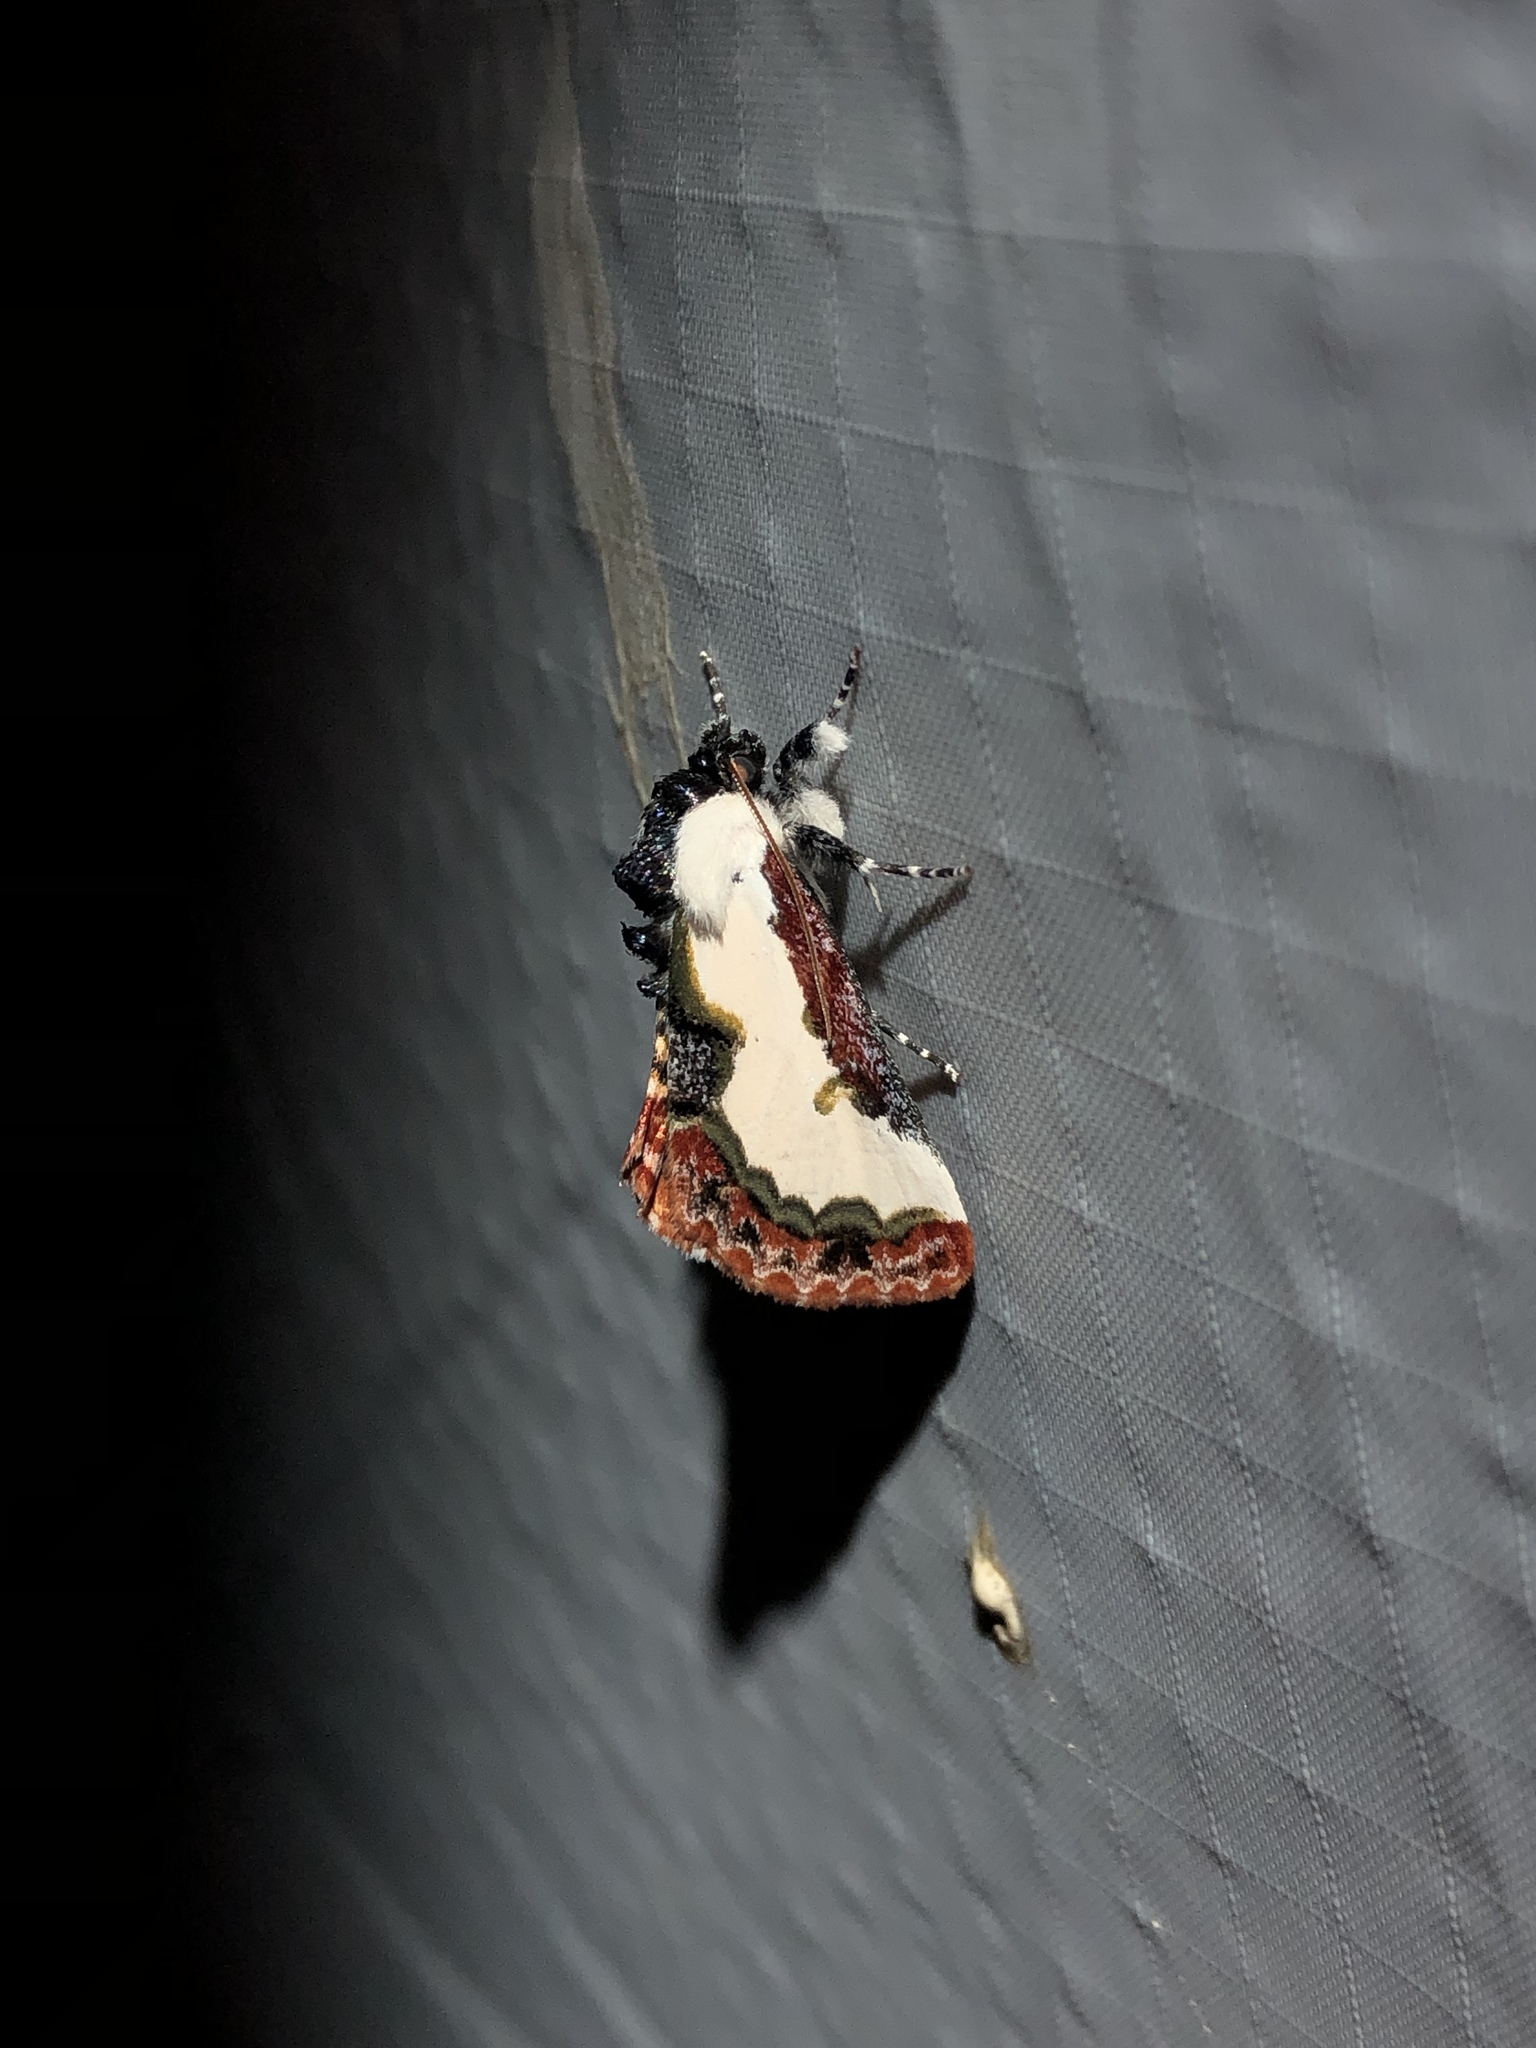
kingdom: Animalia
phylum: Arthropoda
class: Insecta
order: Lepidoptera
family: Noctuidae
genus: Eudryas
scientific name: Eudryas unio
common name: Pearly wood-nymph
